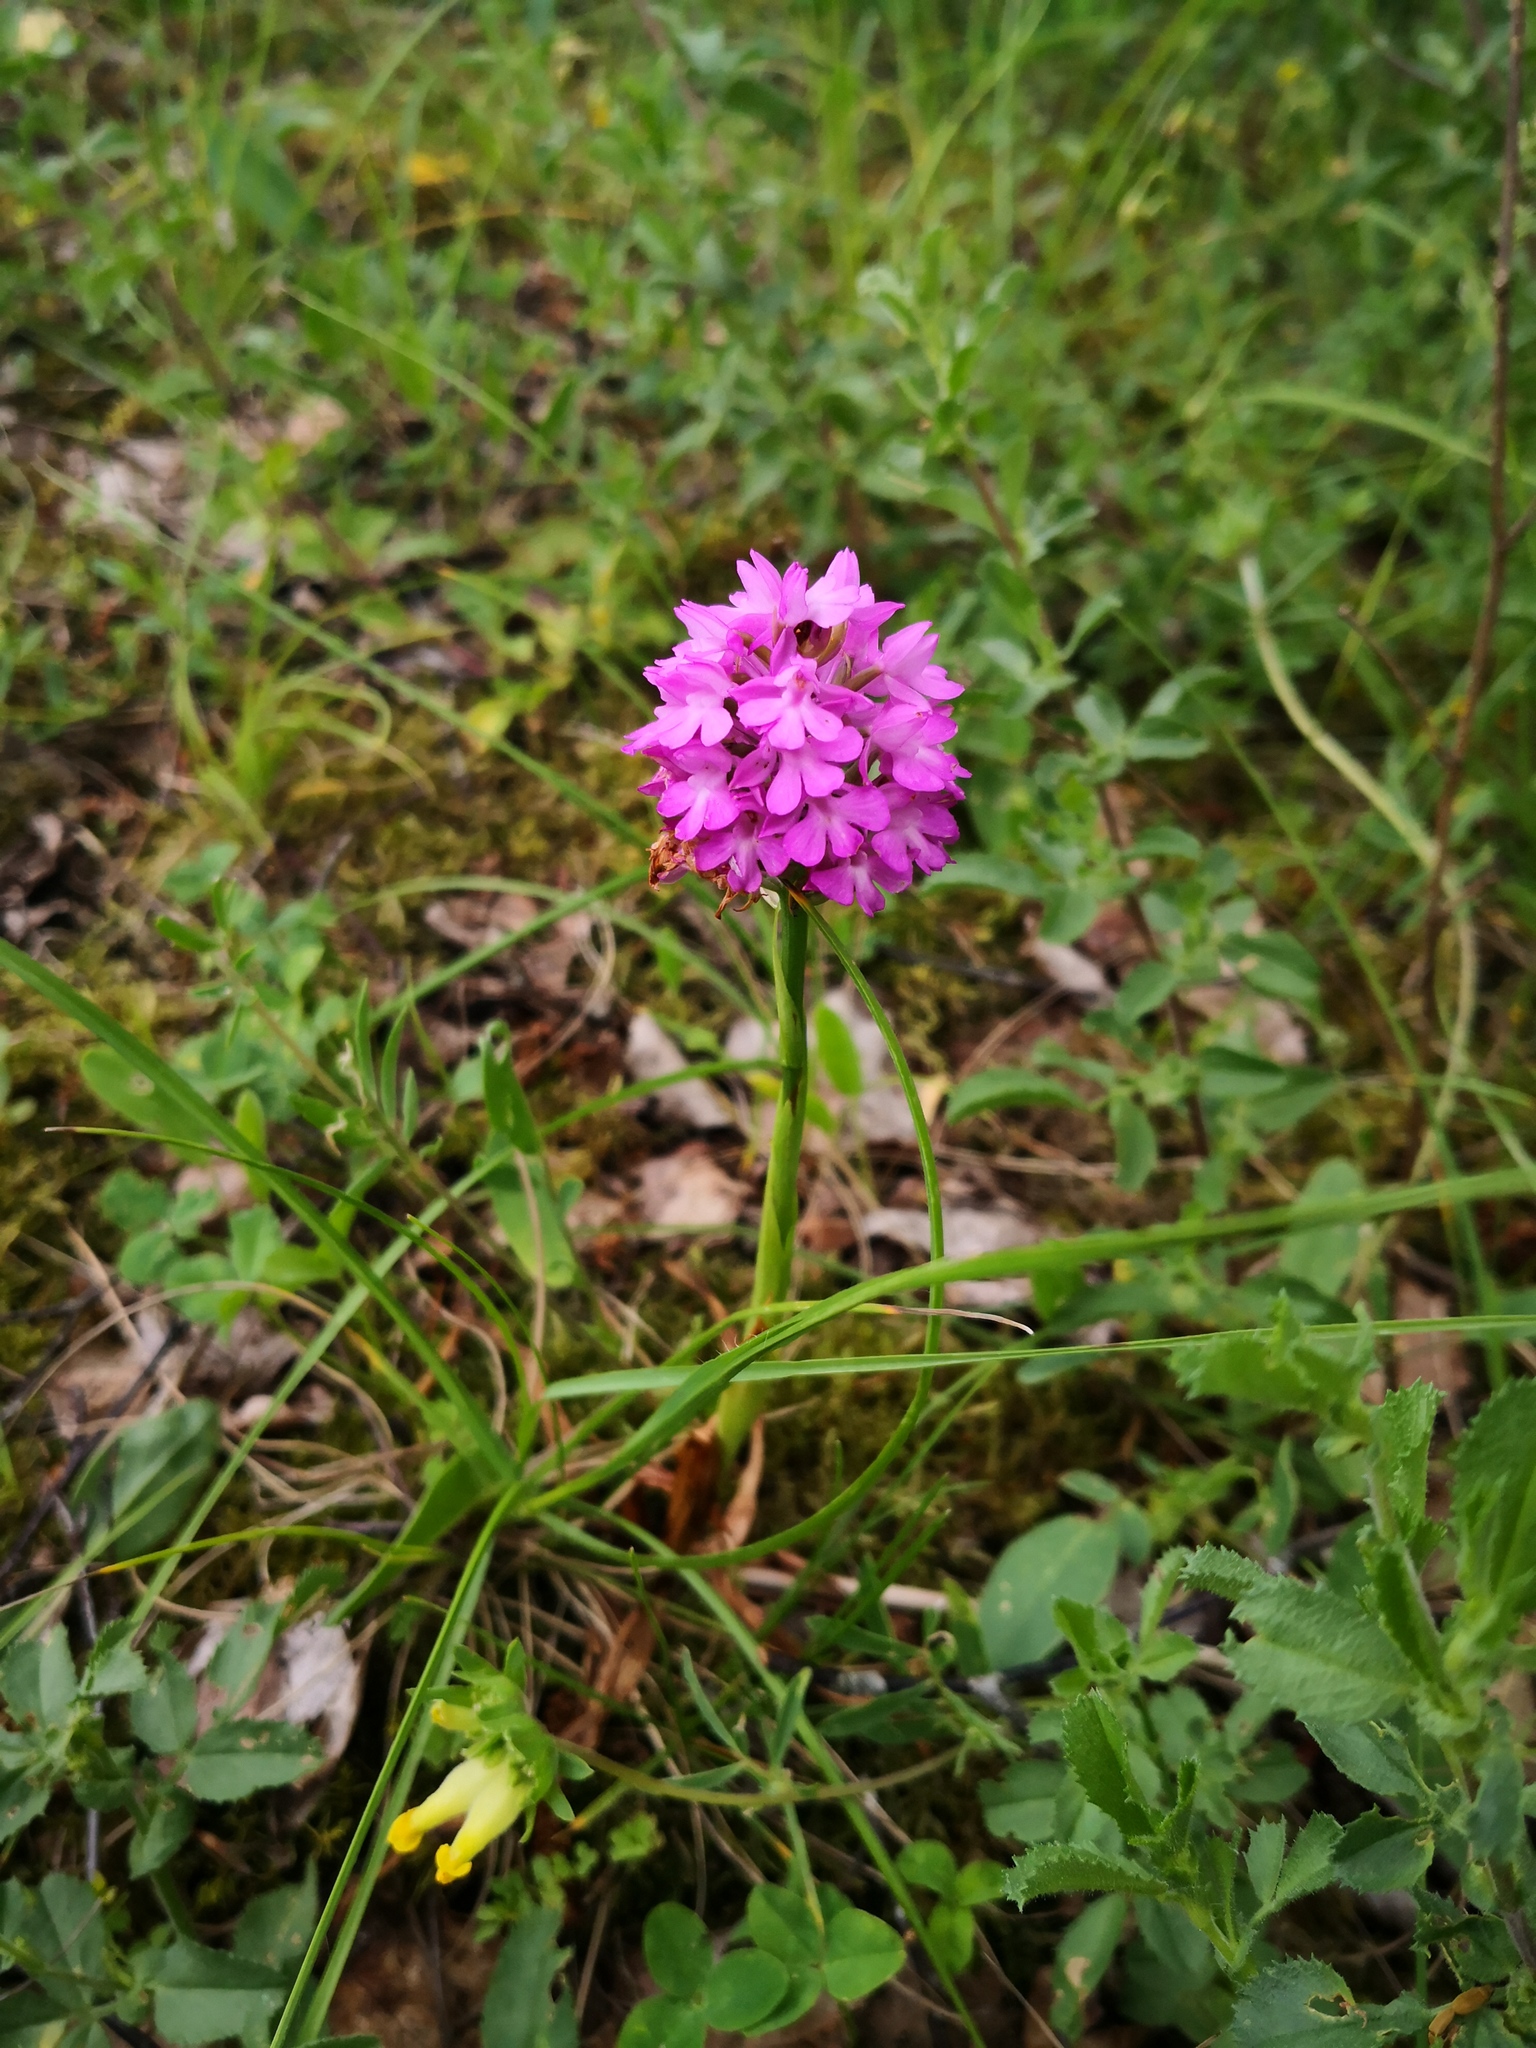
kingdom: Plantae
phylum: Tracheophyta
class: Liliopsida
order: Asparagales
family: Orchidaceae
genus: Anacamptis
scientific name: Anacamptis pyramidalis
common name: Pyramidal orchid
